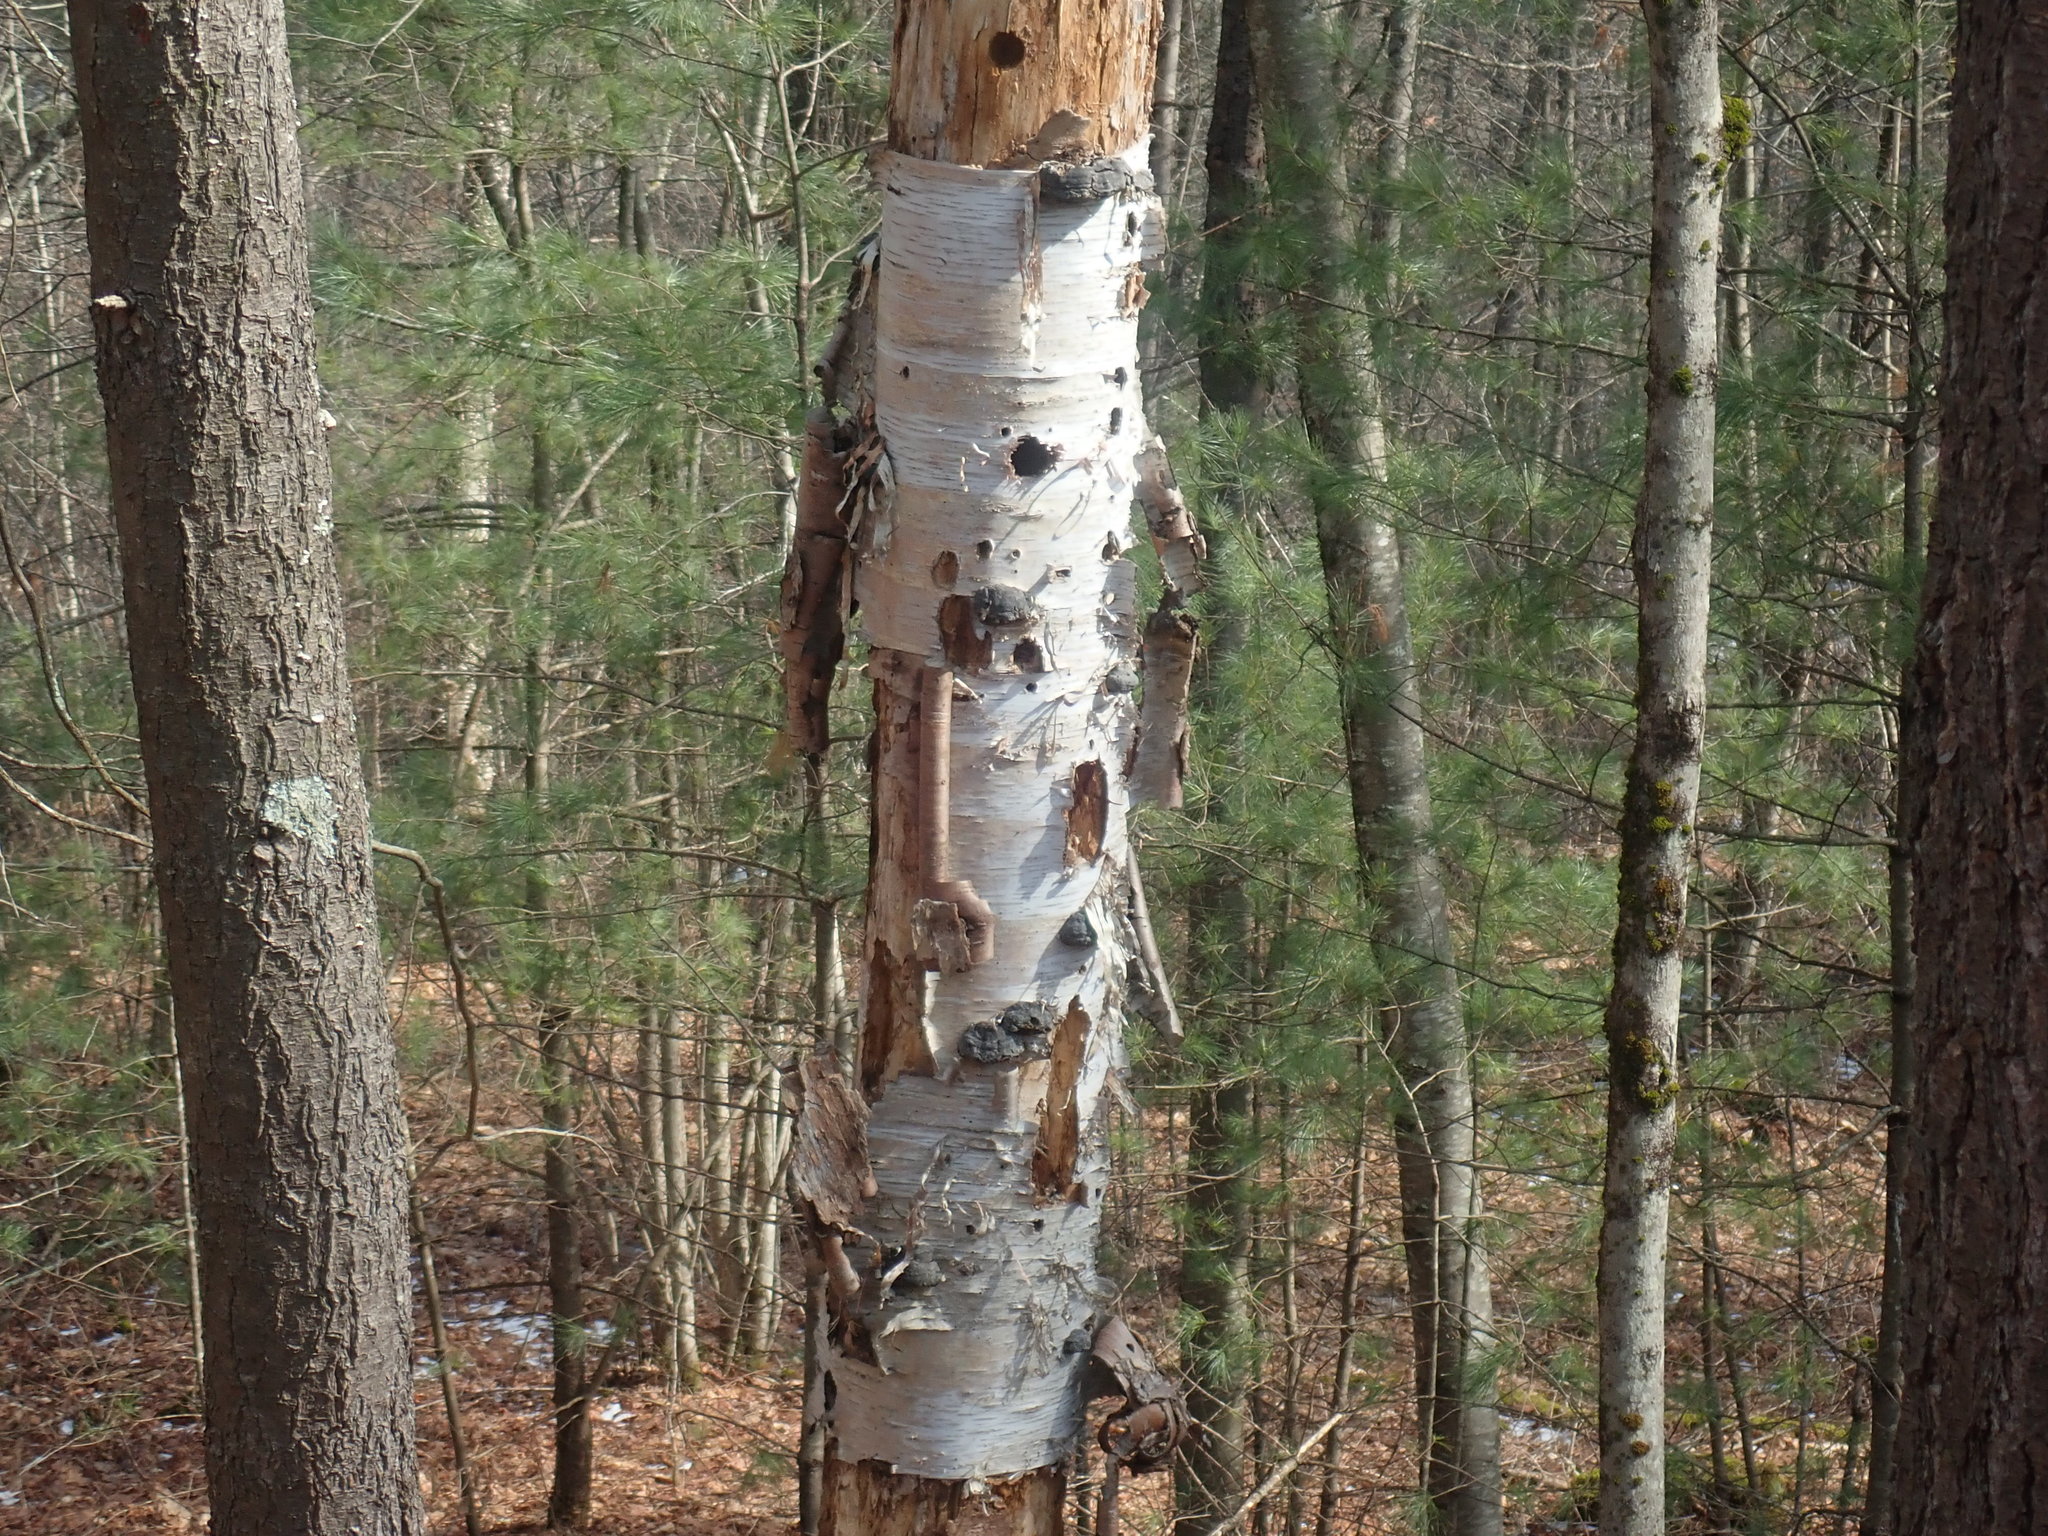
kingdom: Plantae
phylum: Tracheophyta
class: Magnoliopsida
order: Fagales
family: Betulaceae
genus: Betula
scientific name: Betula papyrifera
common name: Paper birch
